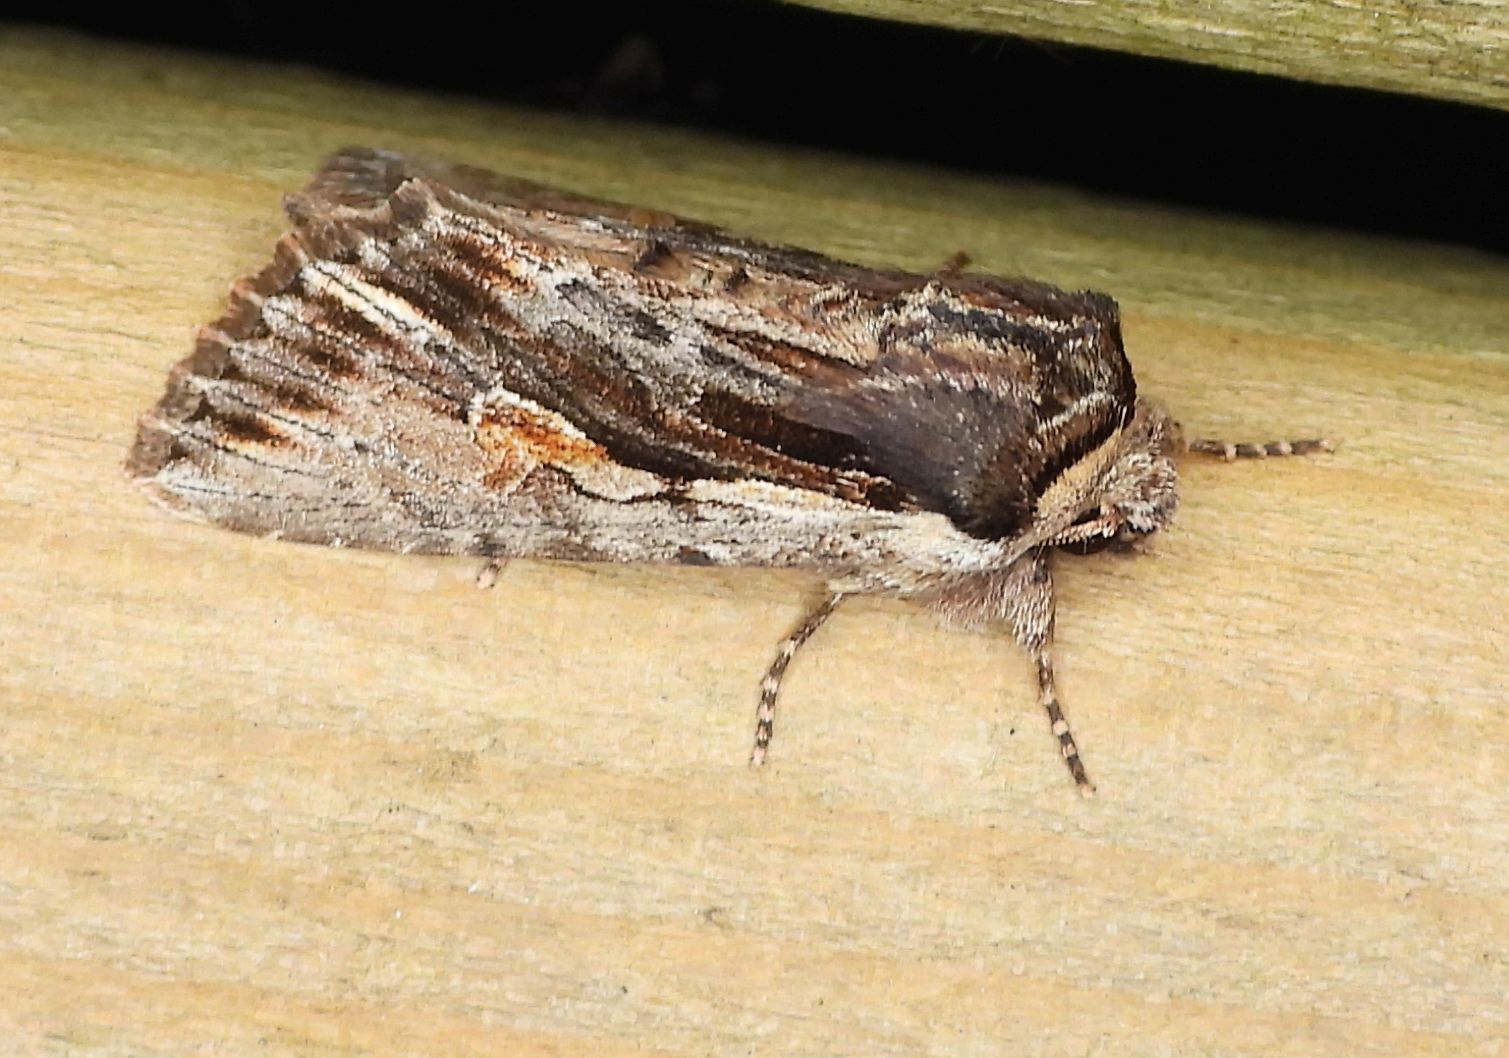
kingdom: Animalia
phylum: Arthropoda
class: Insecta
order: Lepidoptera
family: Noctuidae
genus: Achatia
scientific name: Achatia evicta
